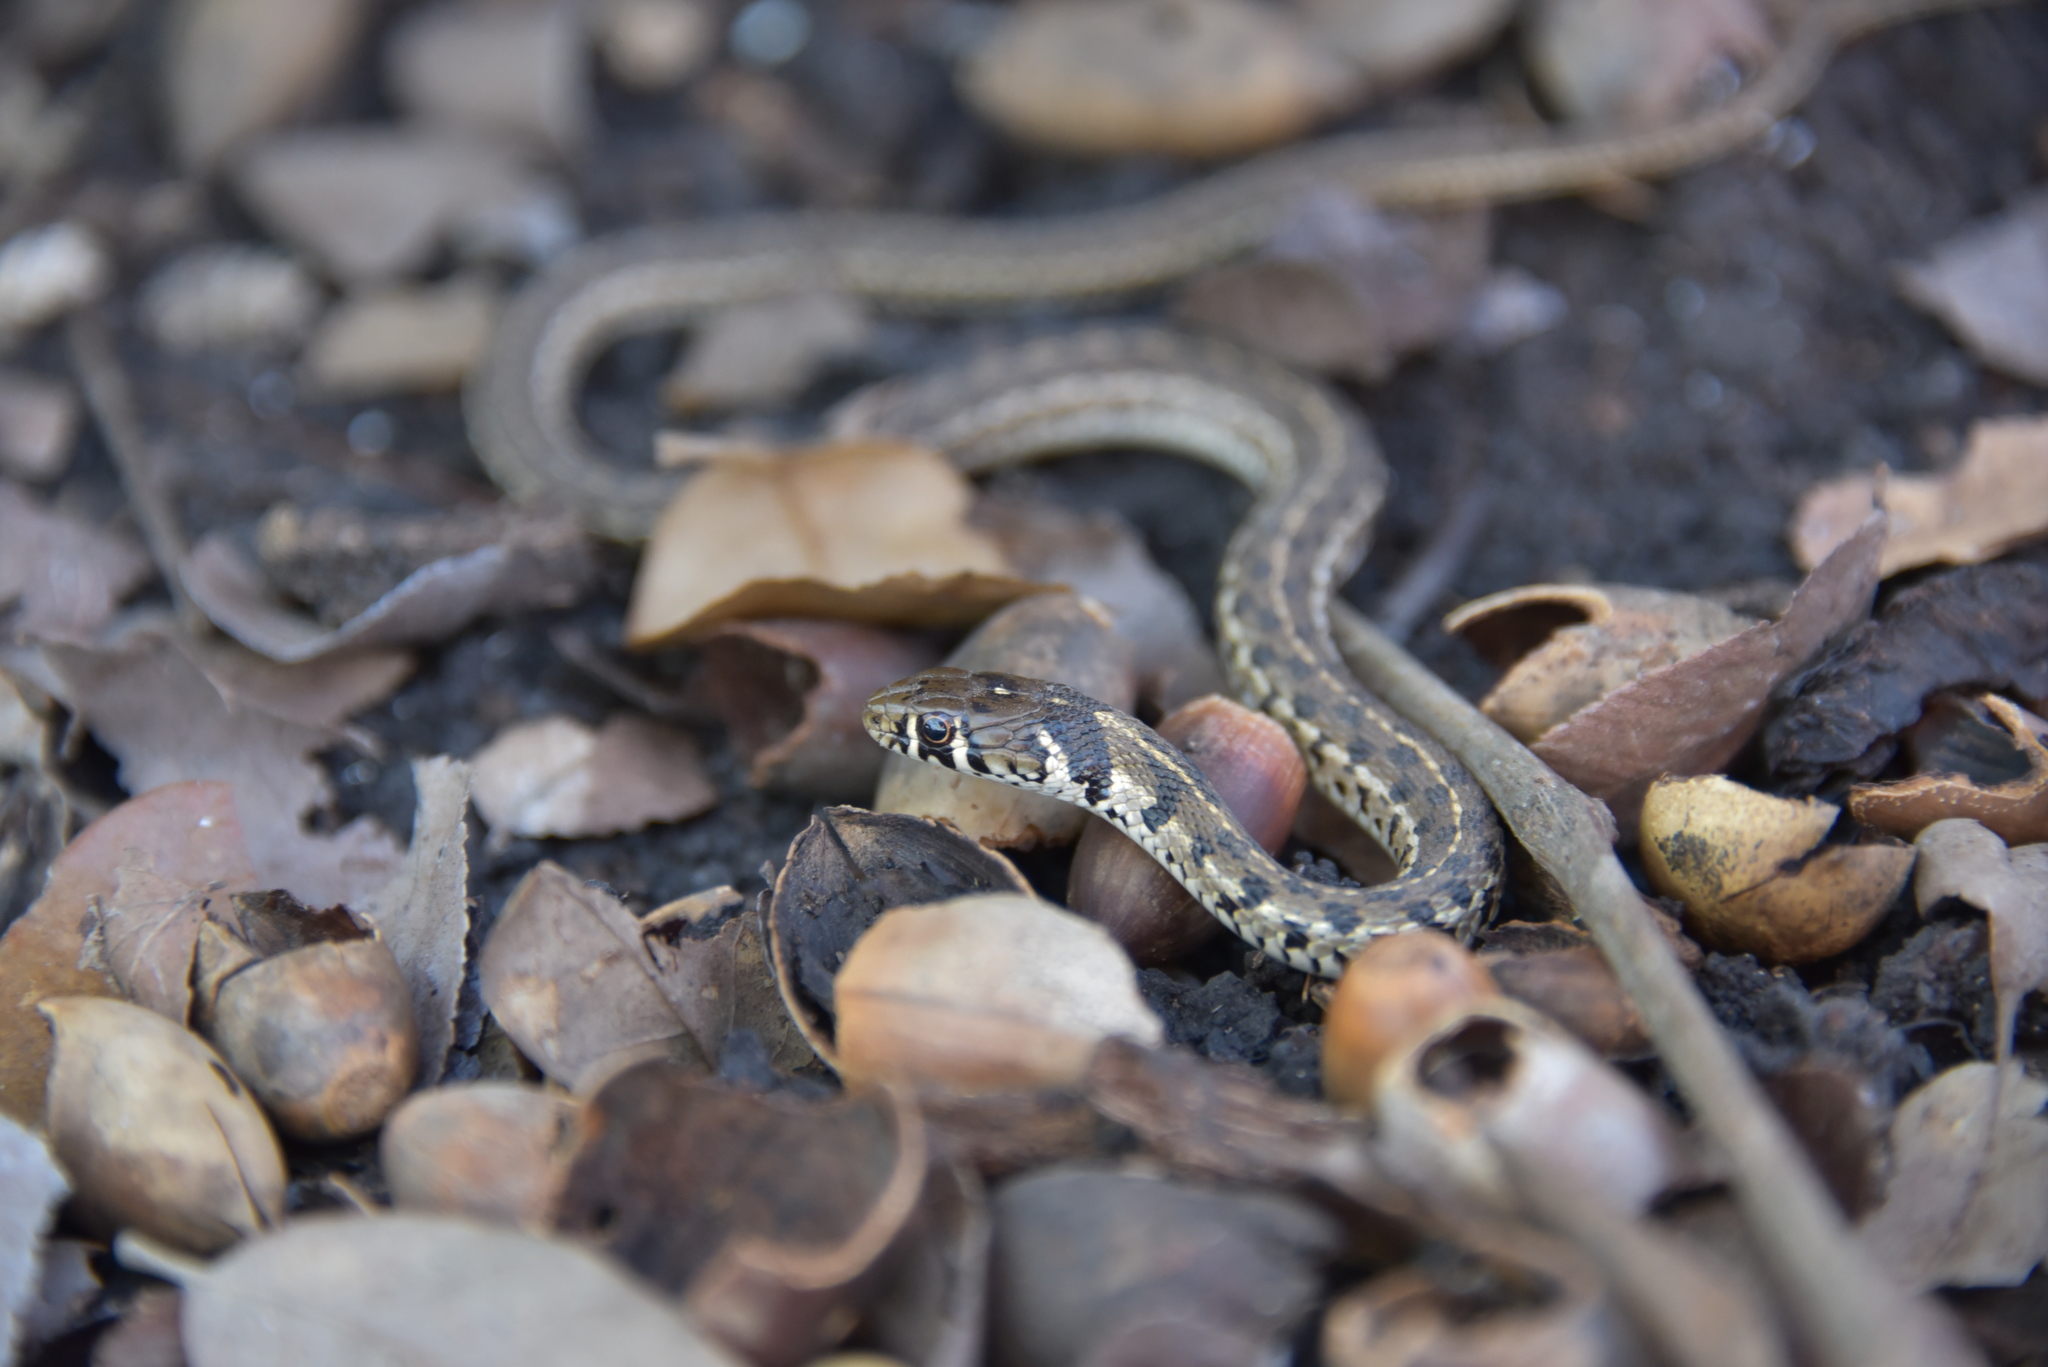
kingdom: Animalia
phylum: Chordata
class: Squamata
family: Colubridae
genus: Thamnophis
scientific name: Thamnophis marcianus
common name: Checkered garter snake
